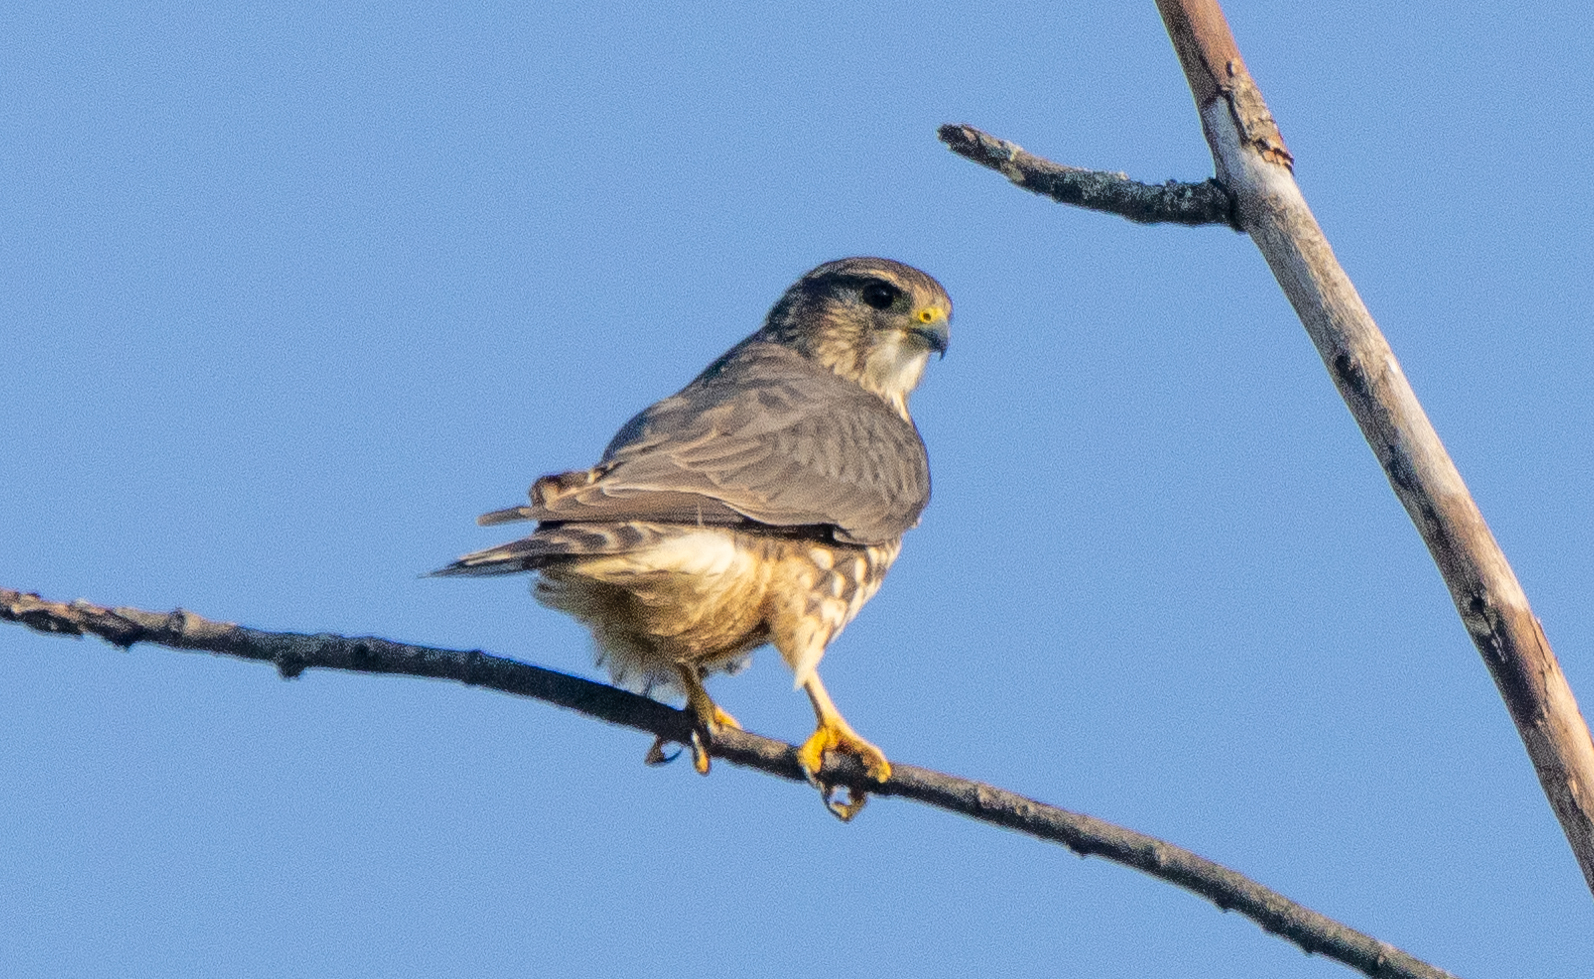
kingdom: Animalia
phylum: Chordata
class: Aves
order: Falconiformes
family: Falconidae
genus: Falco
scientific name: Falco columbarius
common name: Merlin
